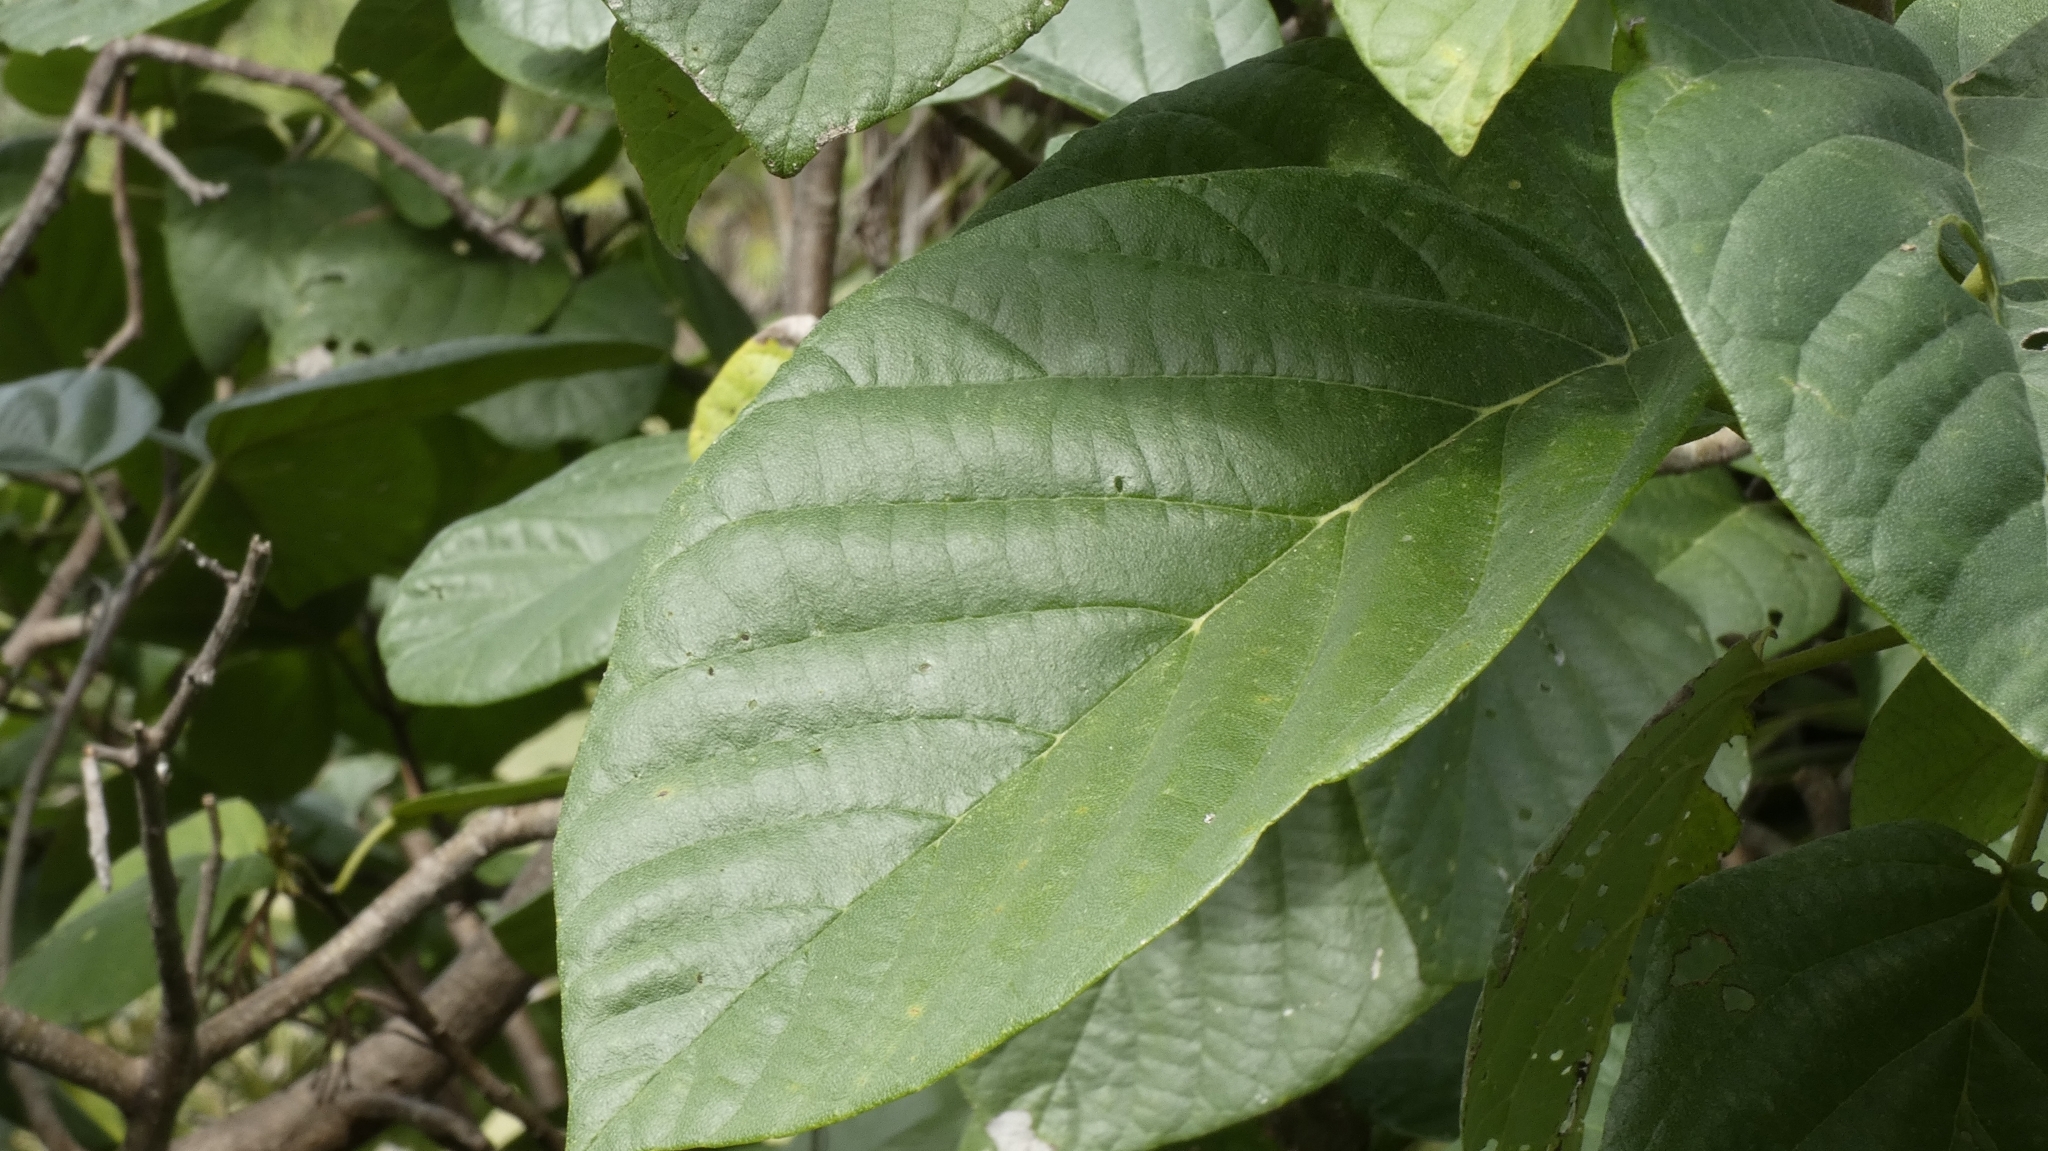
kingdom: Plantae
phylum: Tracheophyta
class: Magnoliopsida
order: Boraginales
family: Cordiaceae
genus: Cordia
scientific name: Cordia sebestena
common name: Largeleaf geigertree
